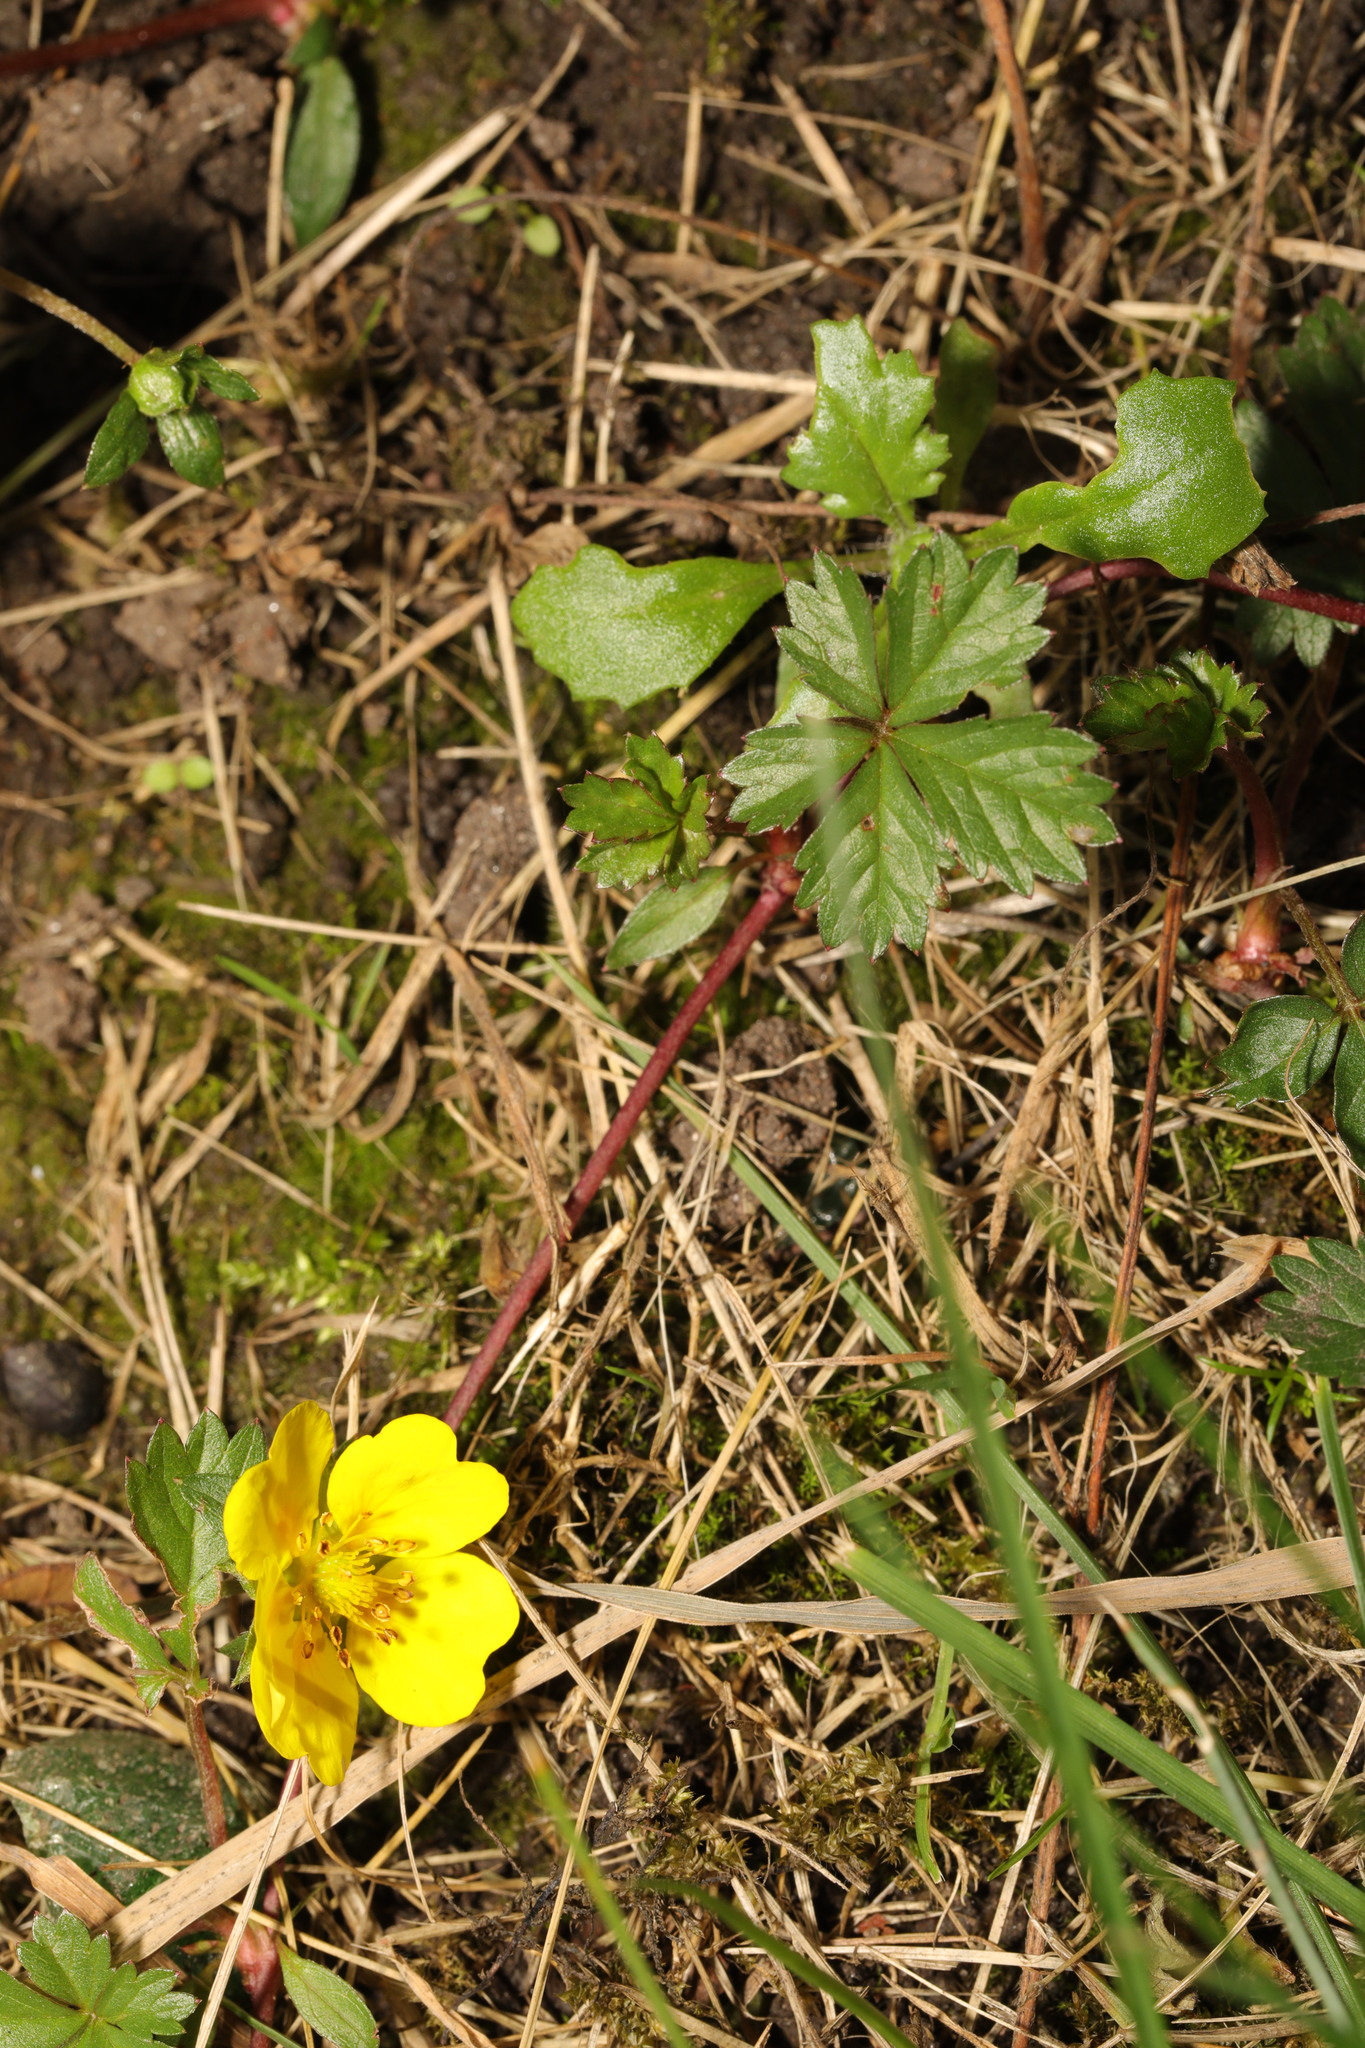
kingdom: Plantae
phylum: Tracheophyta
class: Magnoliopsida
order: Rosales
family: Rosaceae
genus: Potentilla
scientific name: Potentilla reptans
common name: Creeping cinquefoil
